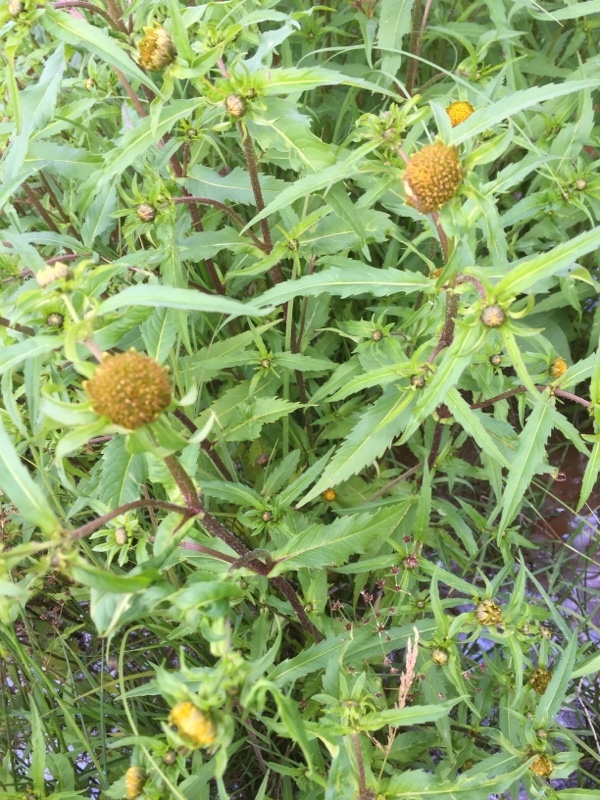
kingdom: Plantae
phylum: Tracheophyta
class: Magnoliopsida
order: Asterales
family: Asteraceae
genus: Bidens
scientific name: Bidens cernua
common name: Nodding bur-marigold
